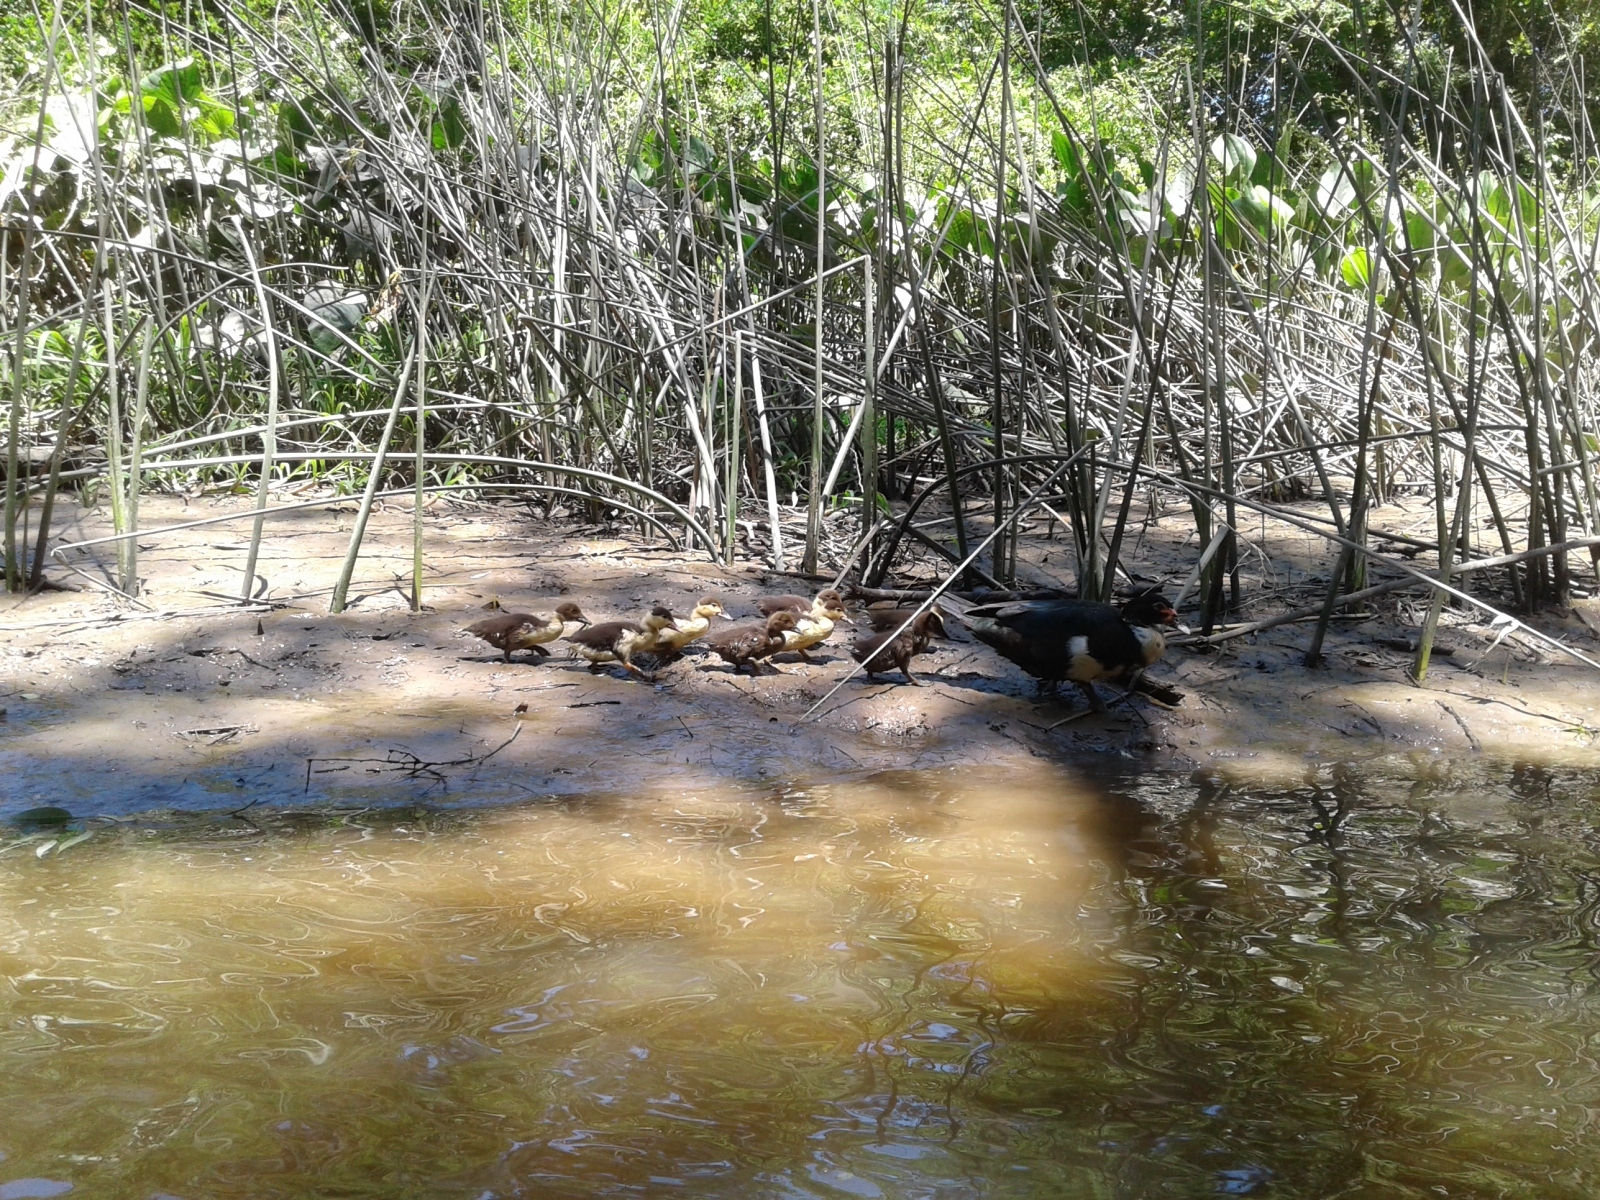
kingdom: Animalia
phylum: Chordata
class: Aves
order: Anseriformes
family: Anatidae
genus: Cairina
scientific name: Cairina moschata
